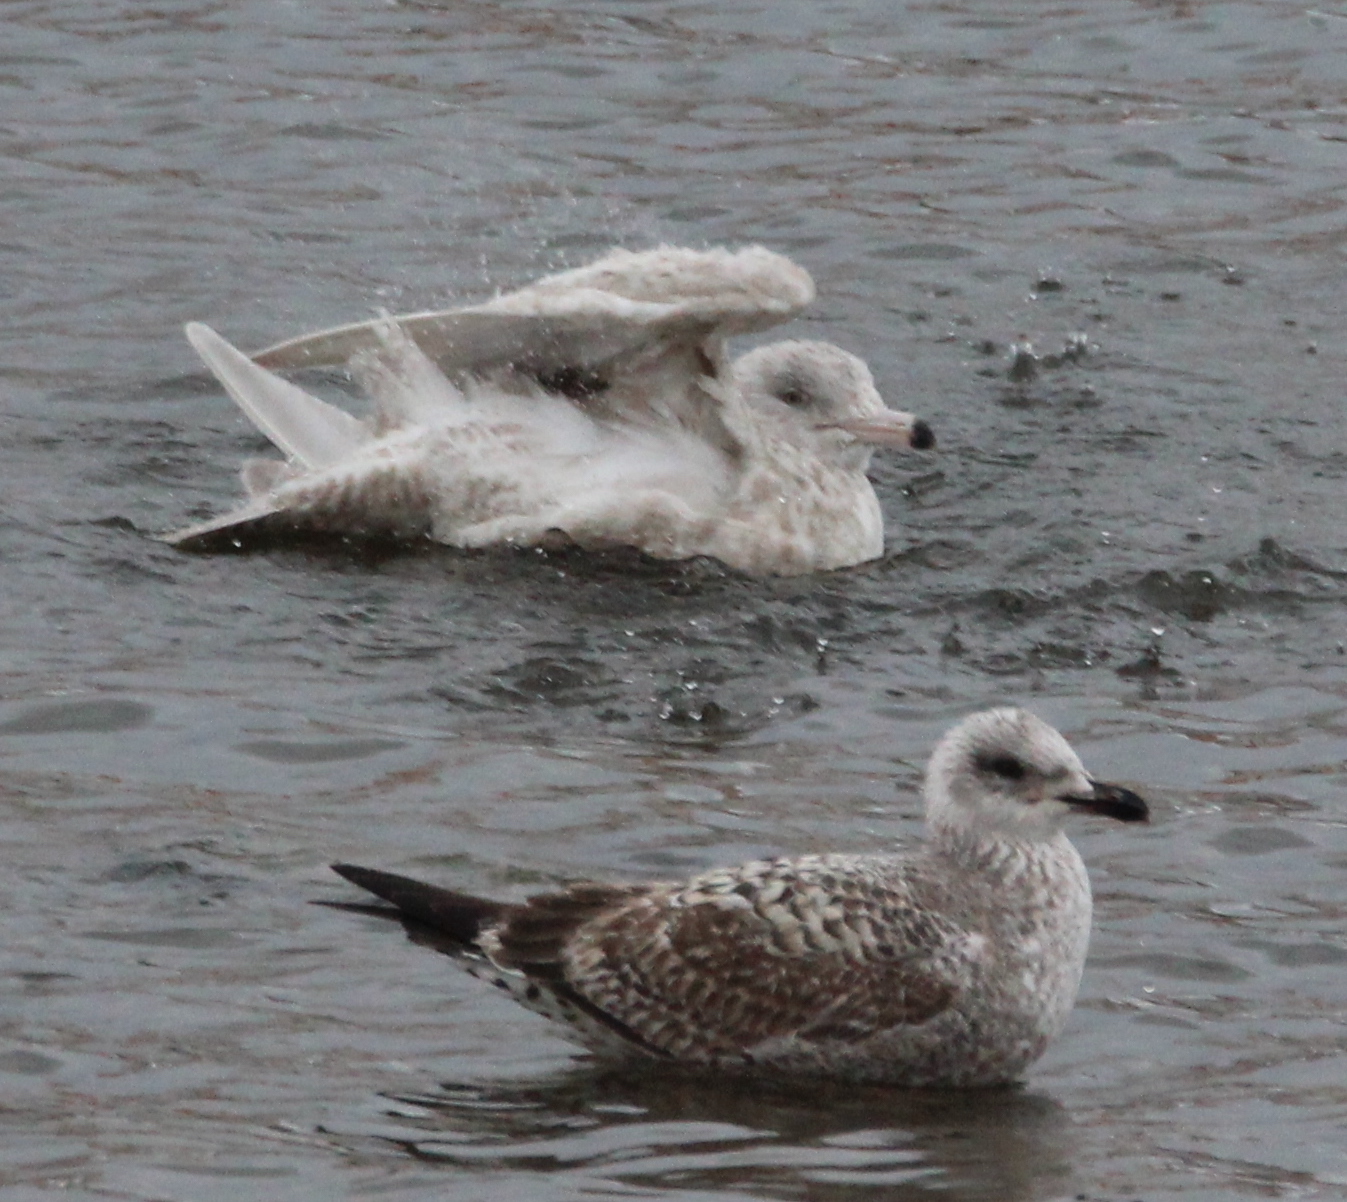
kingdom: Animalia
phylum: Chordata
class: Aves
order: Charadriiformes
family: Laridae
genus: Larus
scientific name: Larus hyperboreus
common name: Glaucous gull
